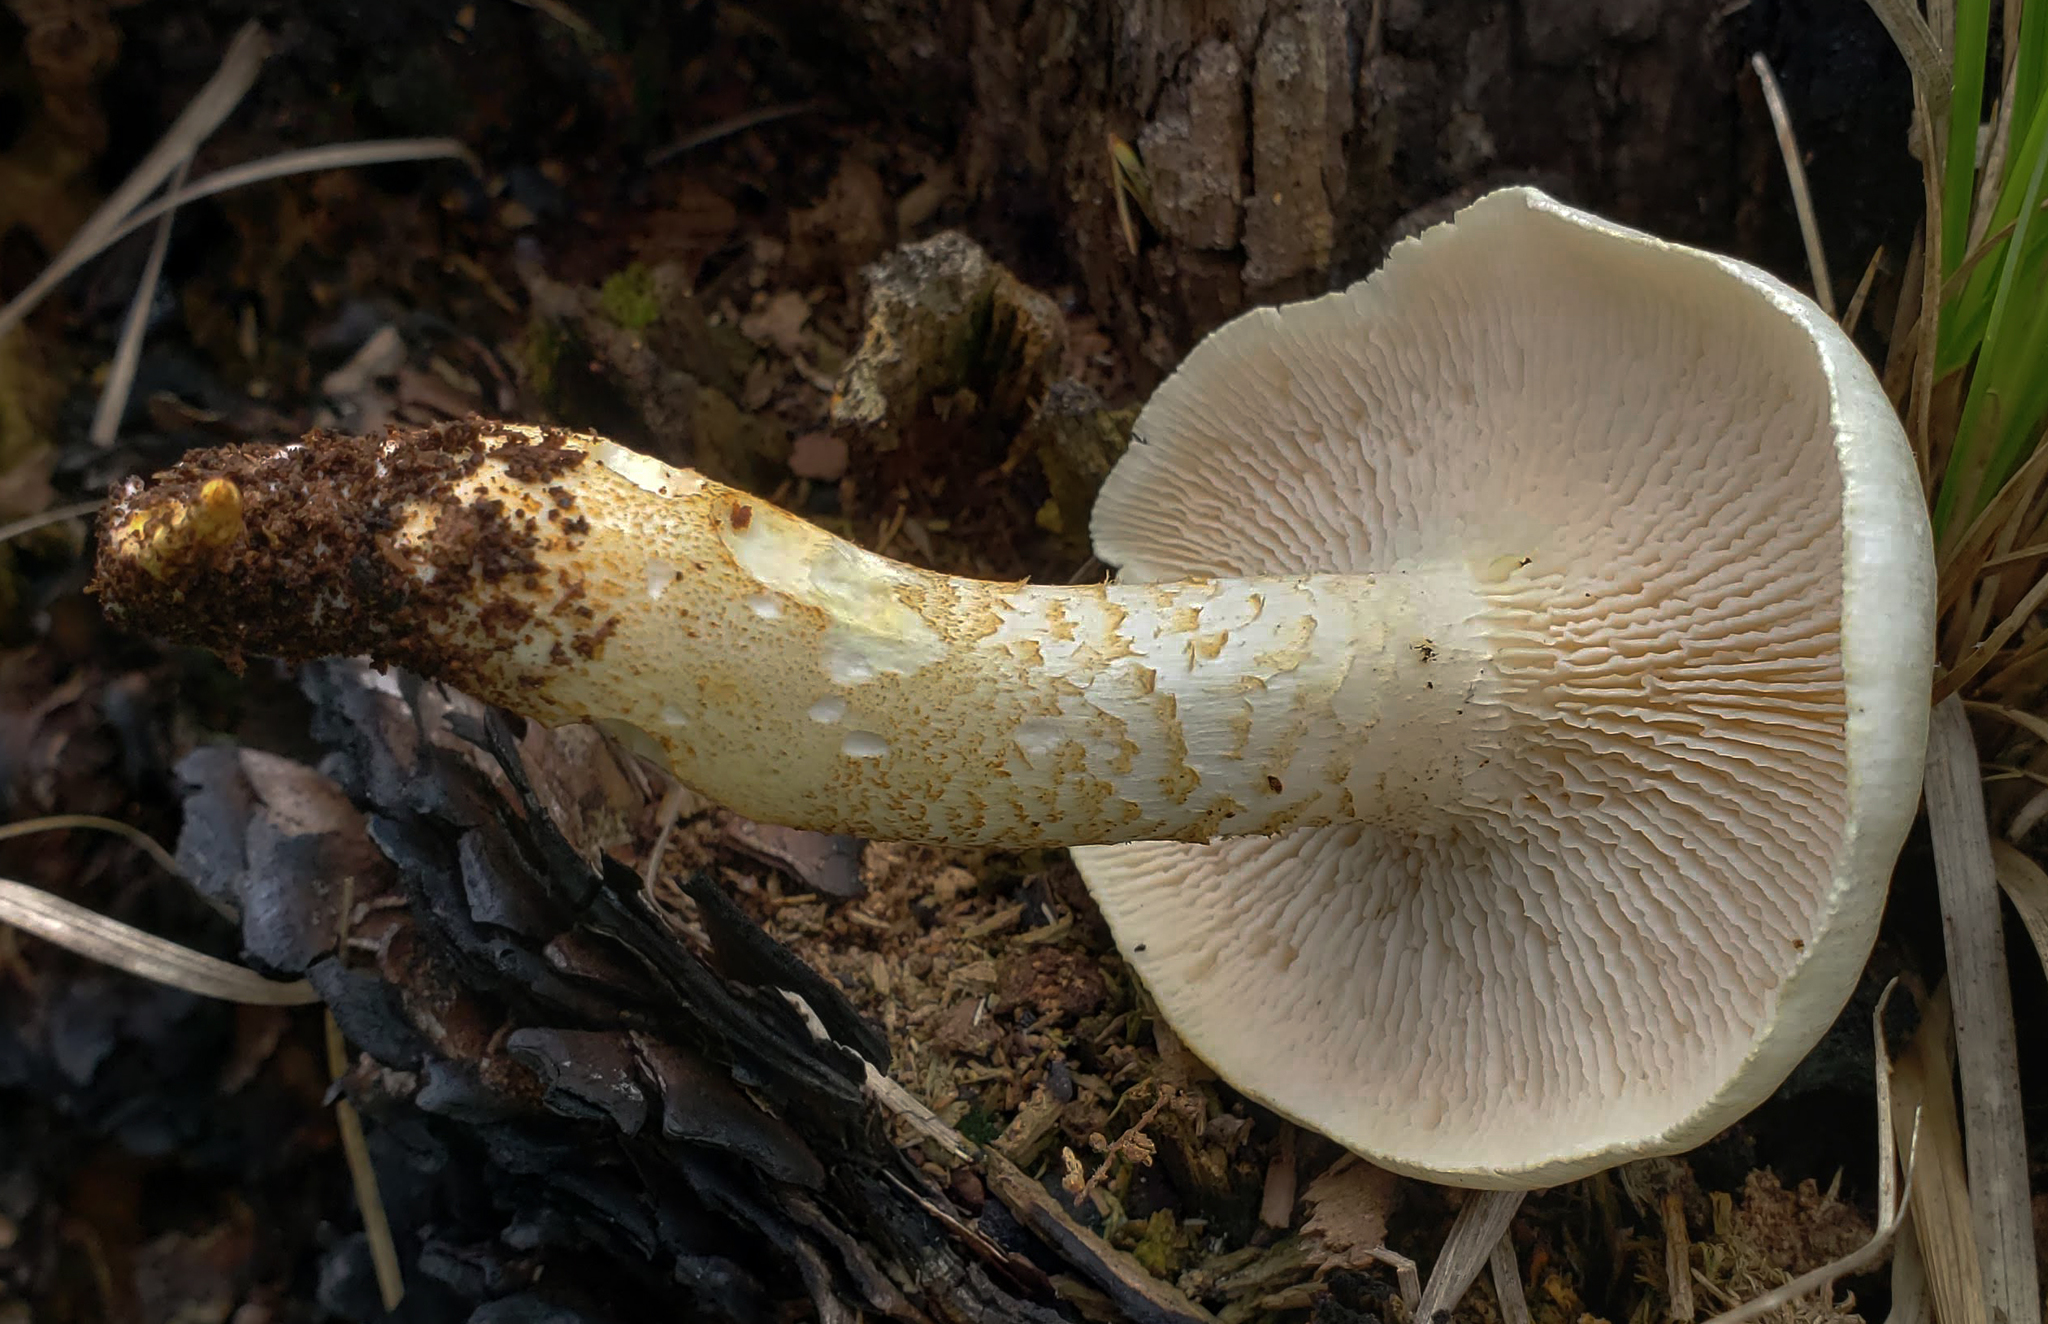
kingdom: Fungi
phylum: Basidiomycota
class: Agaricomycetes
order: Gloeophyllales
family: Gloeophyllaceae
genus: Neolentinus
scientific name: Neolentinus lepideus
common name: Scaly sawgill
